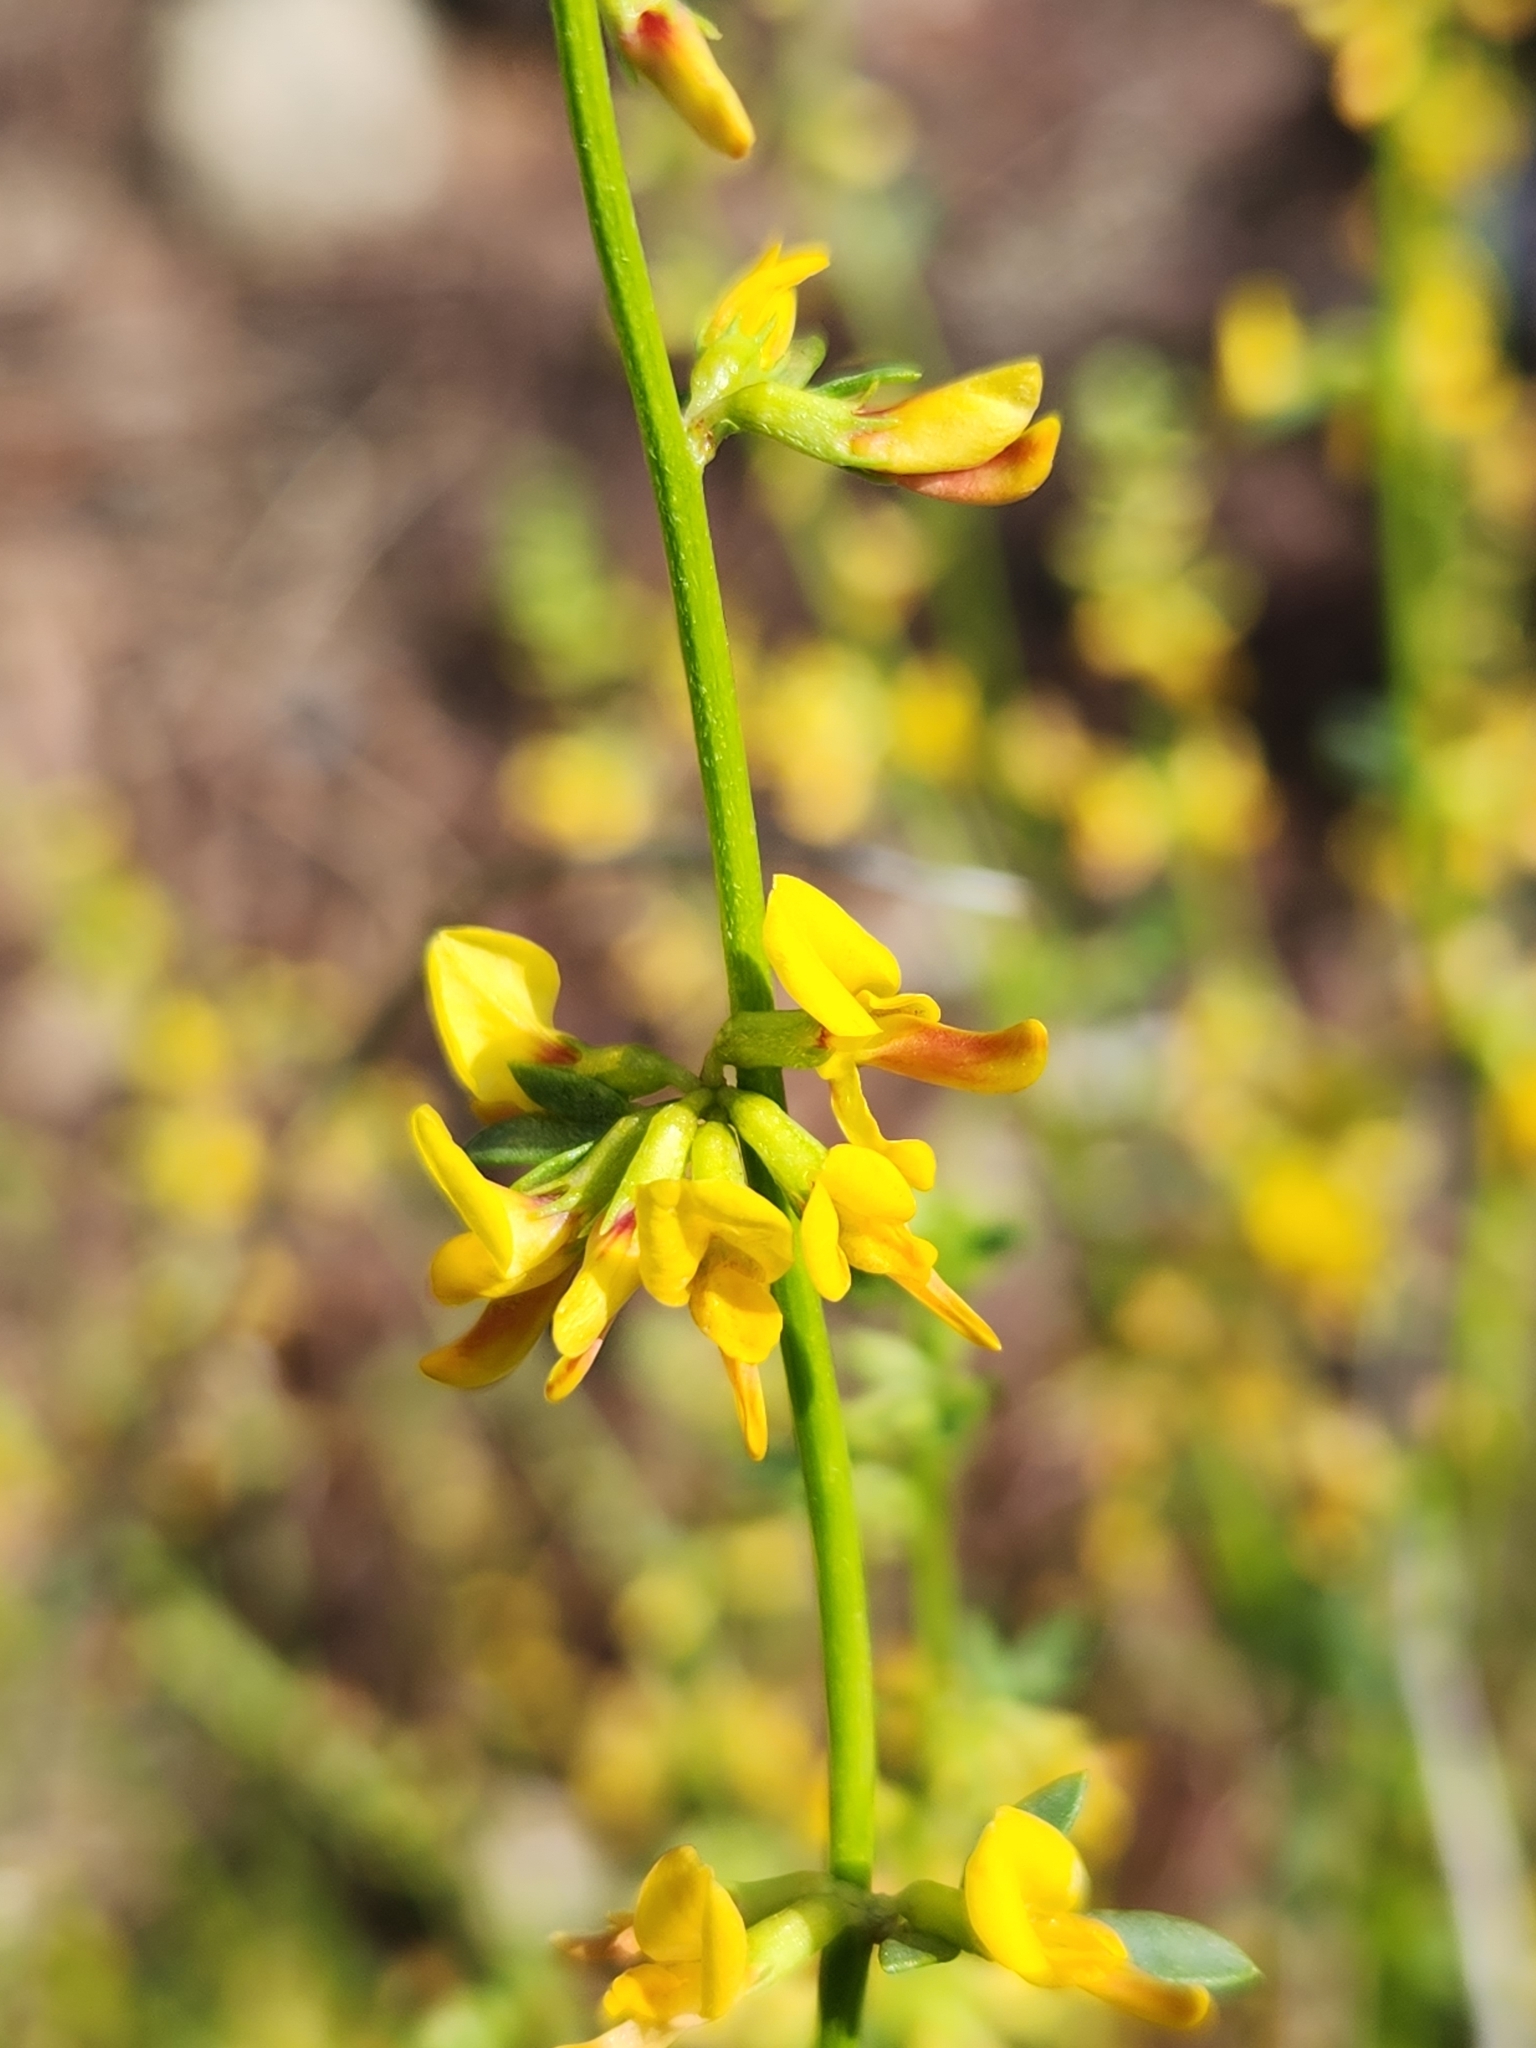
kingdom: Plantae
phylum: Tracheophyta
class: Magnoliopsida
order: Fabales
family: Fabaceae
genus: Acmispon
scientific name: Acmispon glaber
